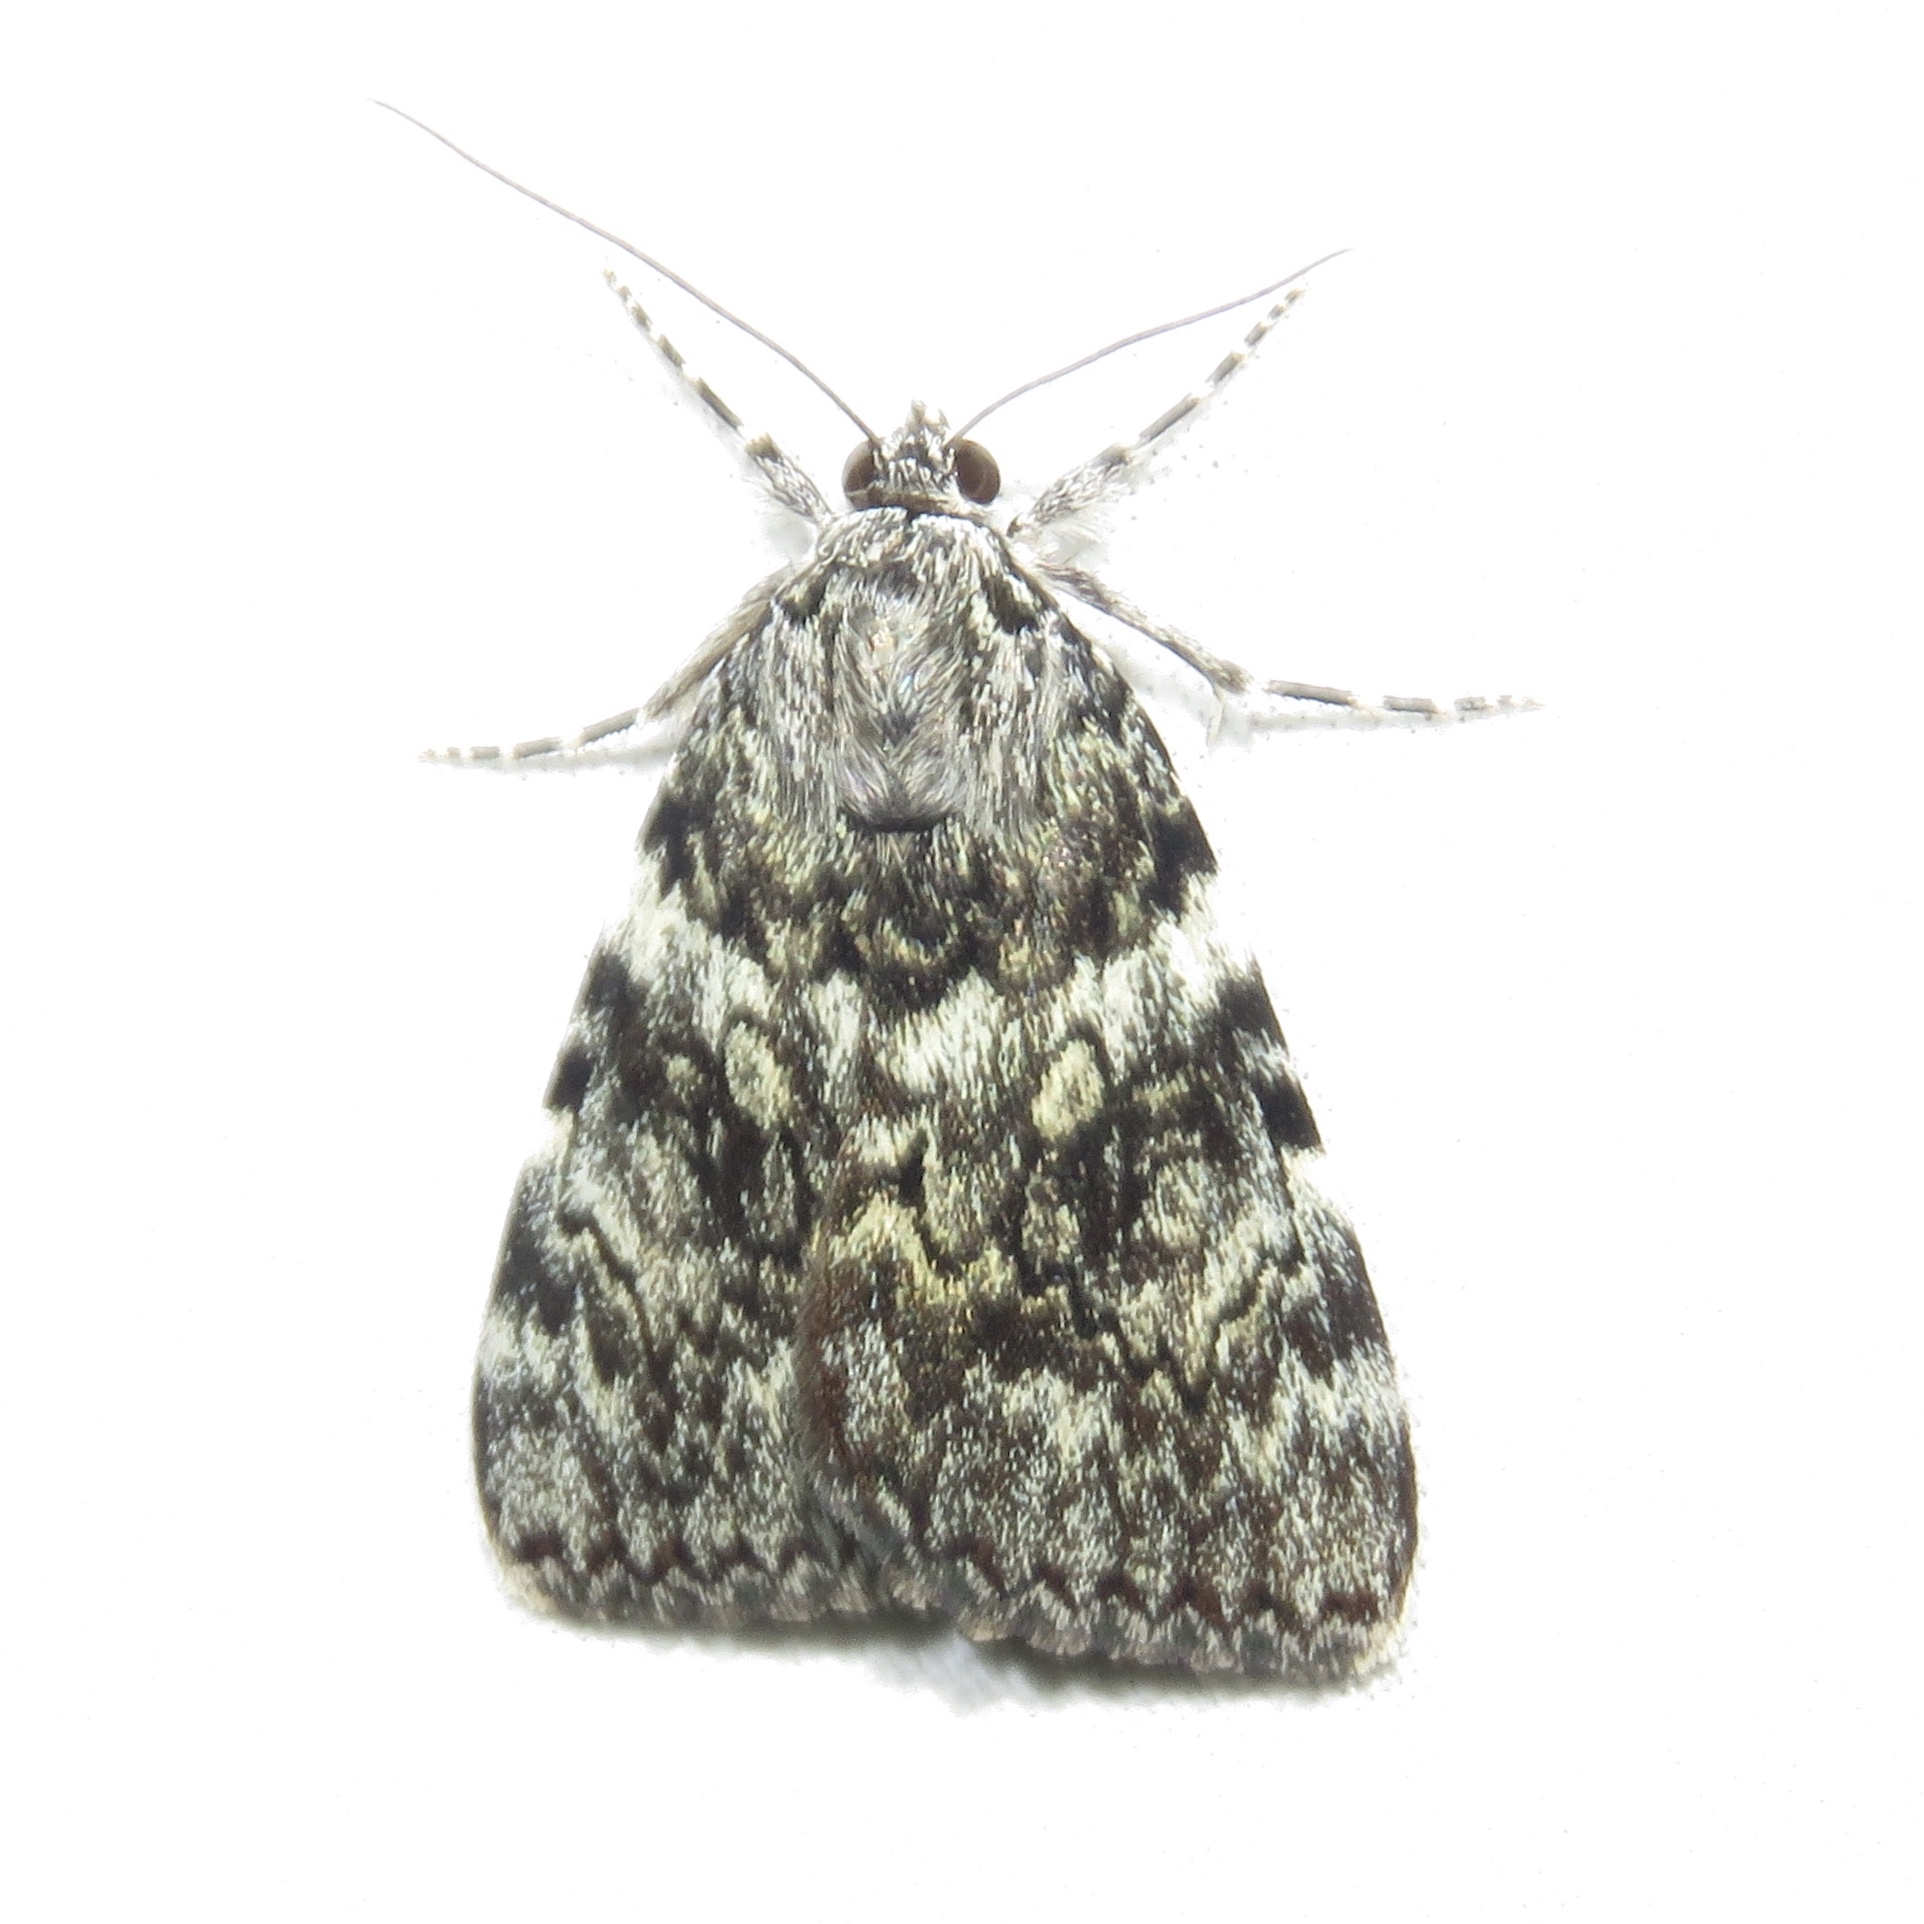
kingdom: Animalia
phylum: Arthropoda
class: Insecta
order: Lepidoptera
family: Erebidae
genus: Catocala
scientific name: Catocala lineella
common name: Little lined underwing
